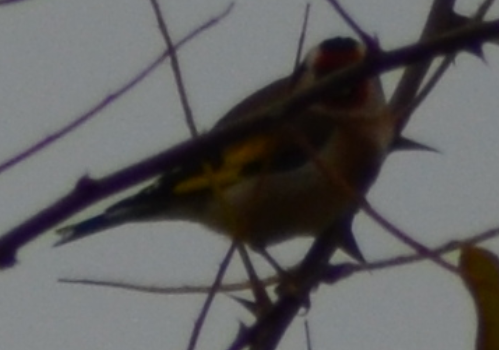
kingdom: Animalia
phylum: Chordata
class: Aves
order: Passeriformes
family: Fringillidae
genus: Carduelis
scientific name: Carduelis carduelis
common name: European goldfinch
